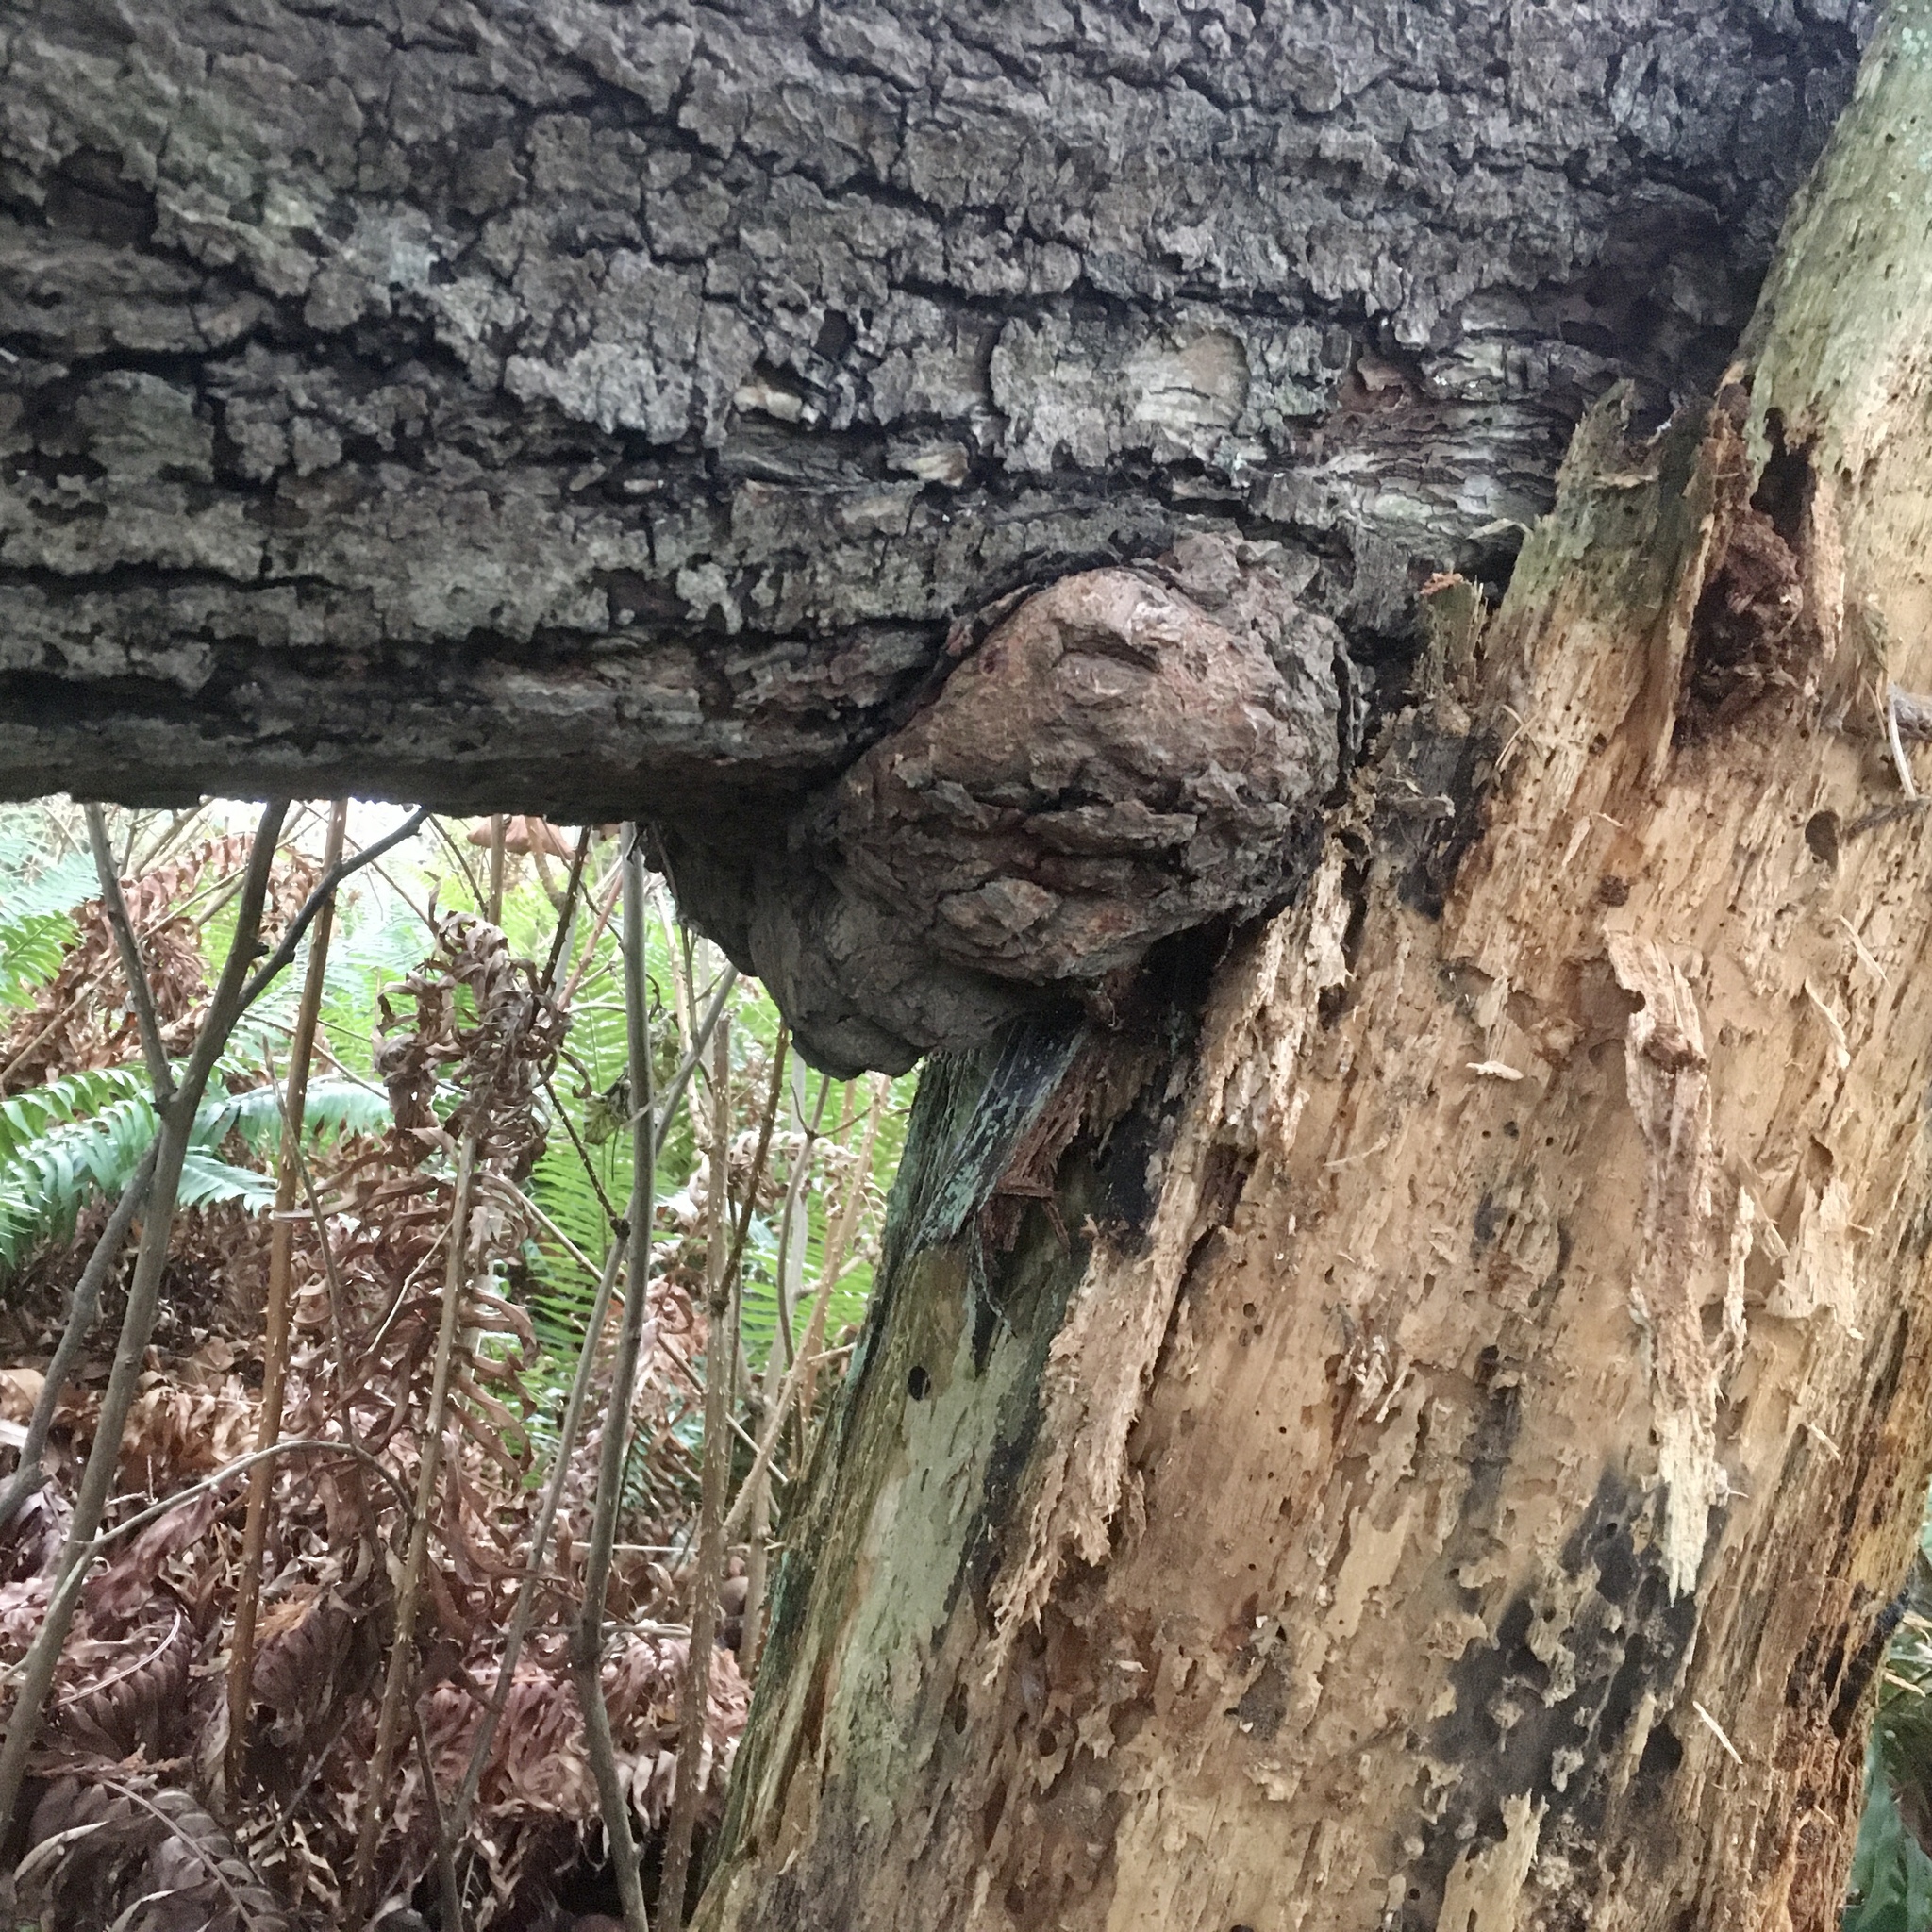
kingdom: Bacteria
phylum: Proteobacteria
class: Alphaproteobacteria
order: Rhizobiales
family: Rhizobiaceae
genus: Rhizobium
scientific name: Rhizobium Agrobacterium radiobacter
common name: Bacterial crown gall
